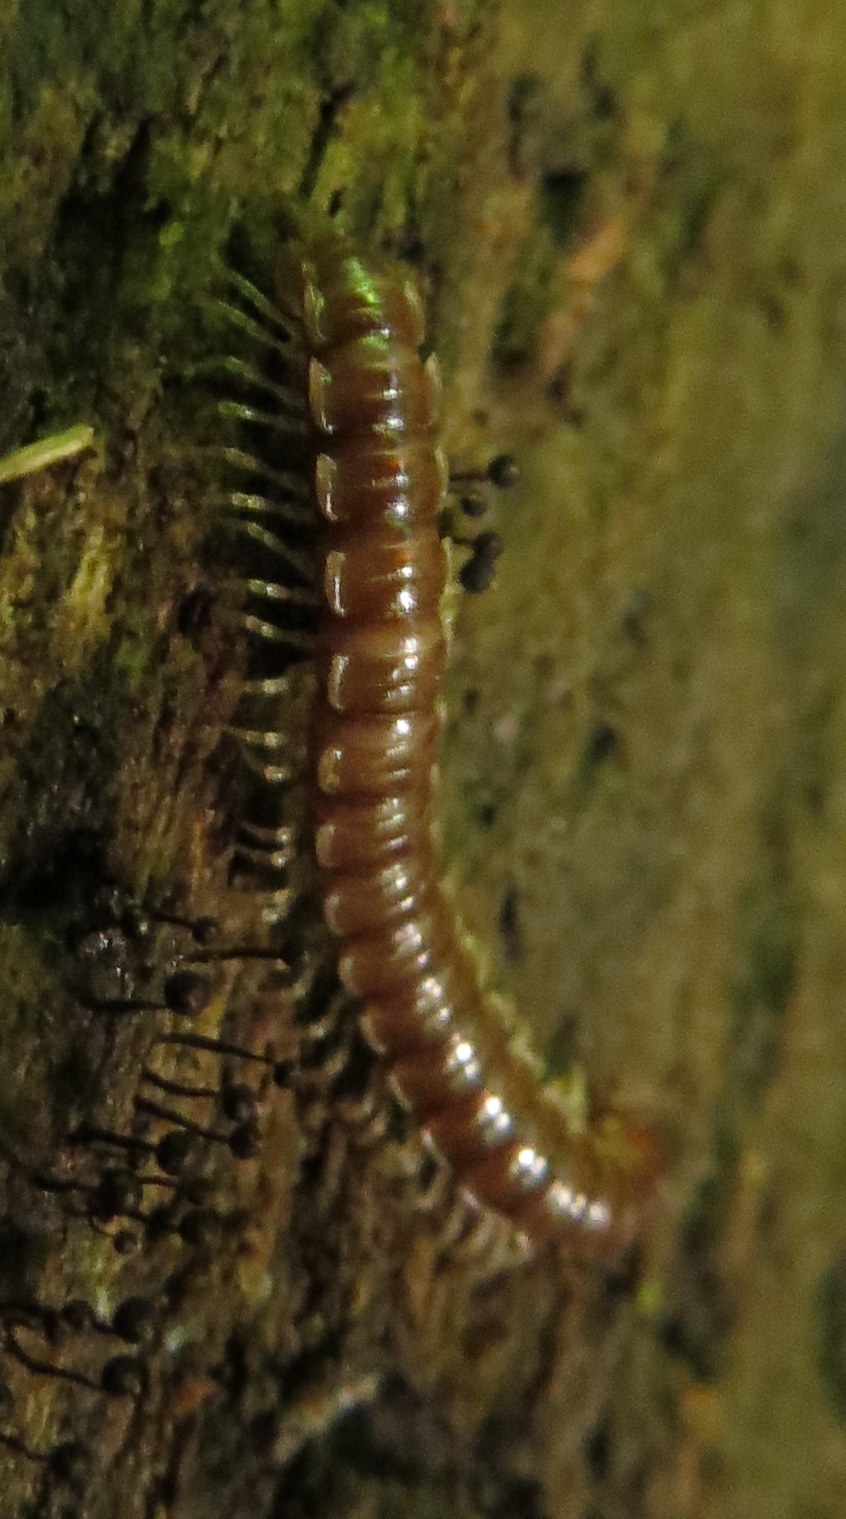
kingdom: Animalia
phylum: Arthropoda
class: Diplopoda
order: Polydesmida
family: Paradoxosomatidae
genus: Oxidus
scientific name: Oxidus gracilis
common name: Greenhouse millipede
